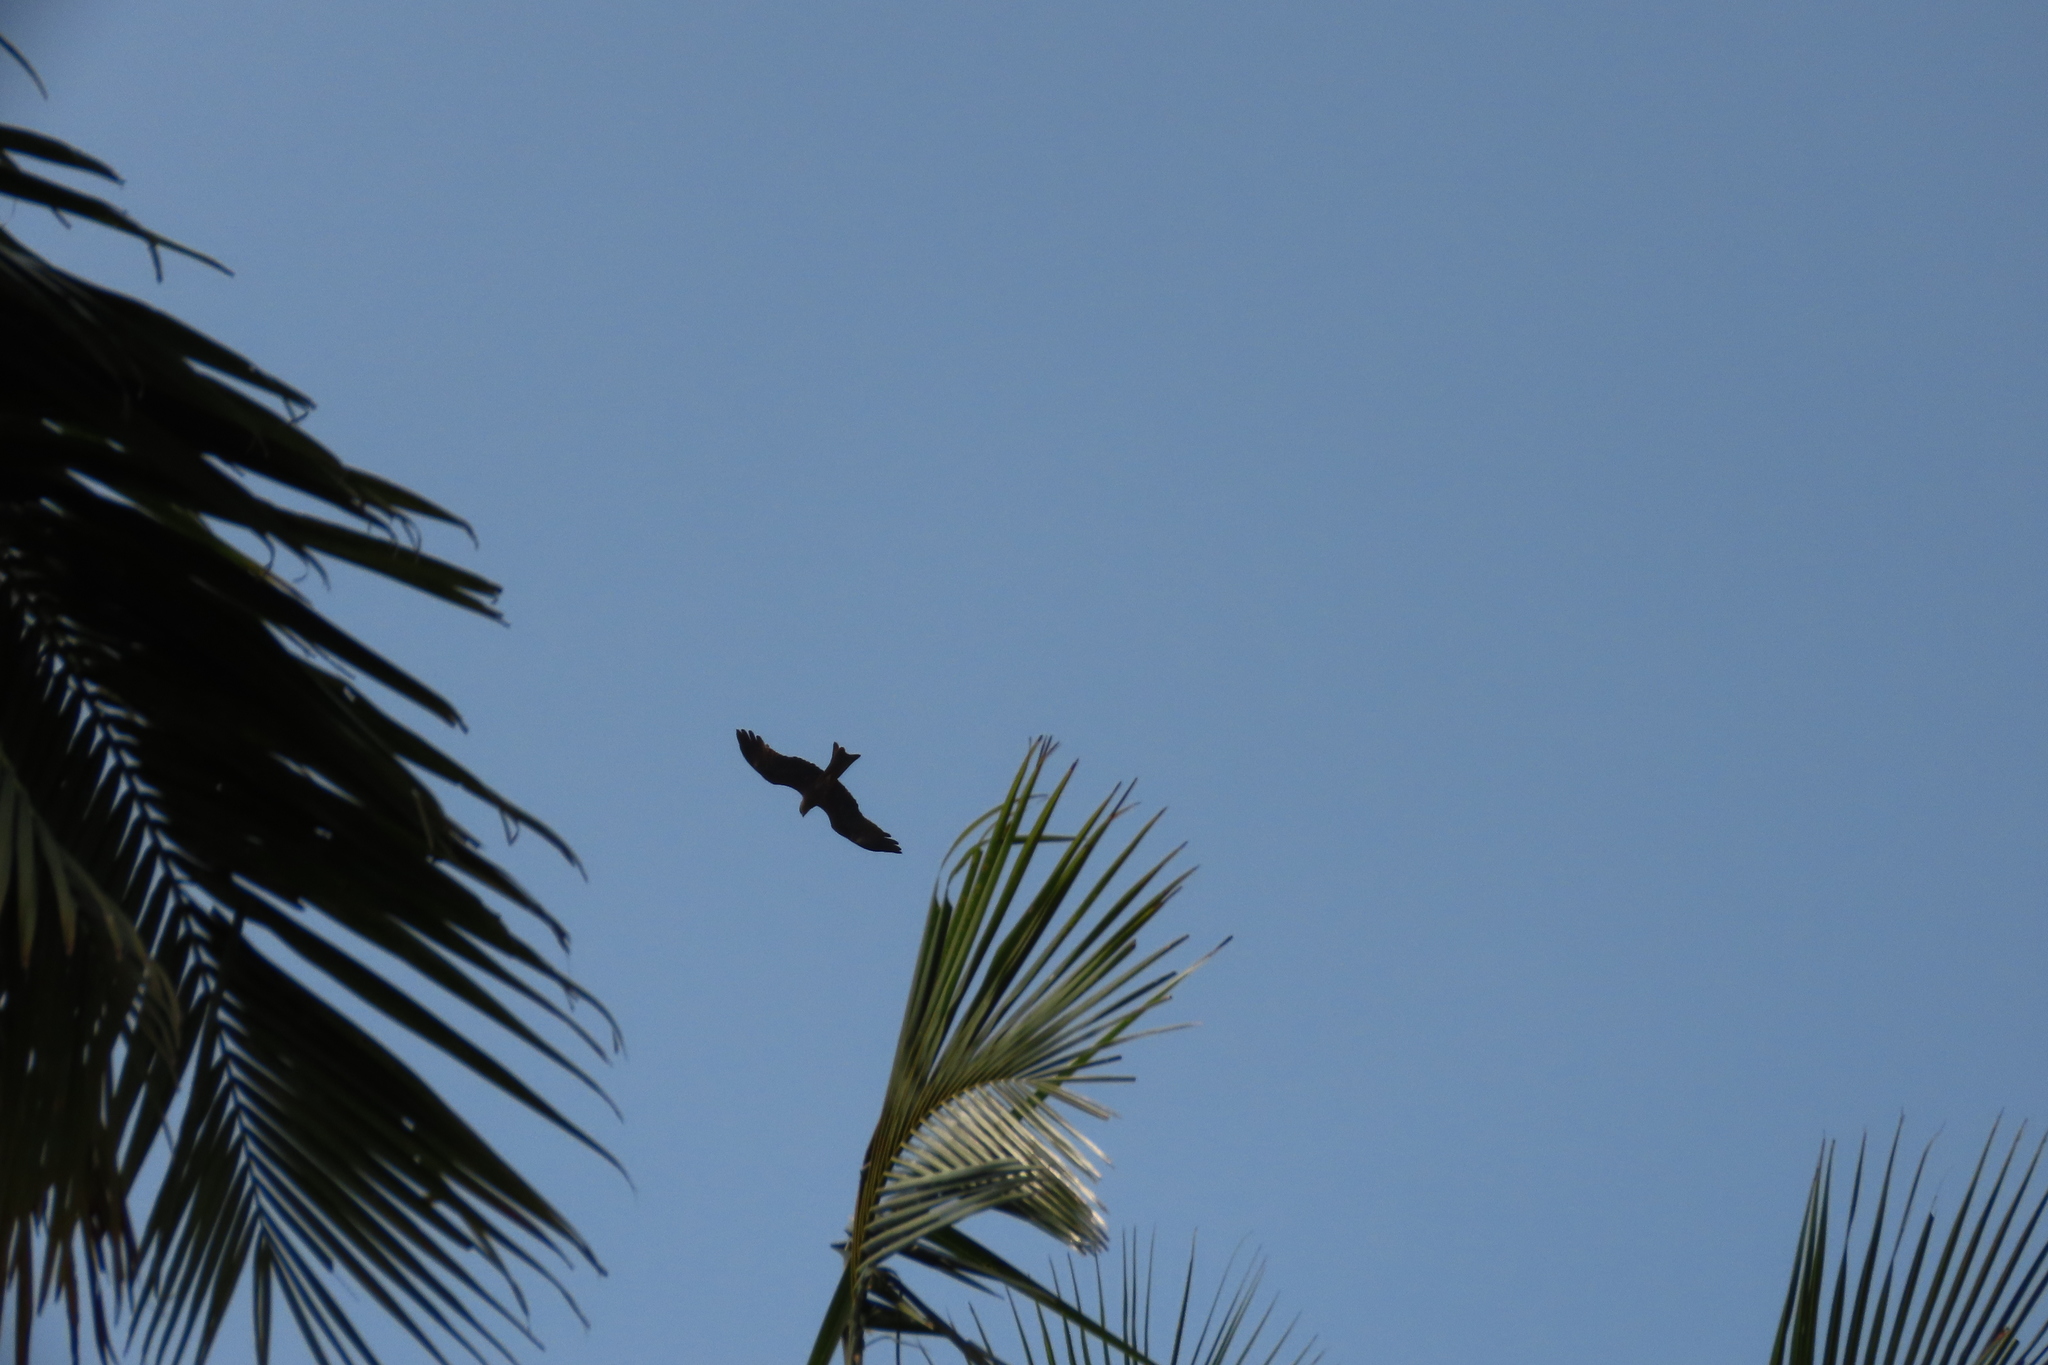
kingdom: Animalia
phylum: Chordata
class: Aves
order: Accipitriformes
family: Accipitridae
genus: Milvus
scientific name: Milvus migrans
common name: Black kite
